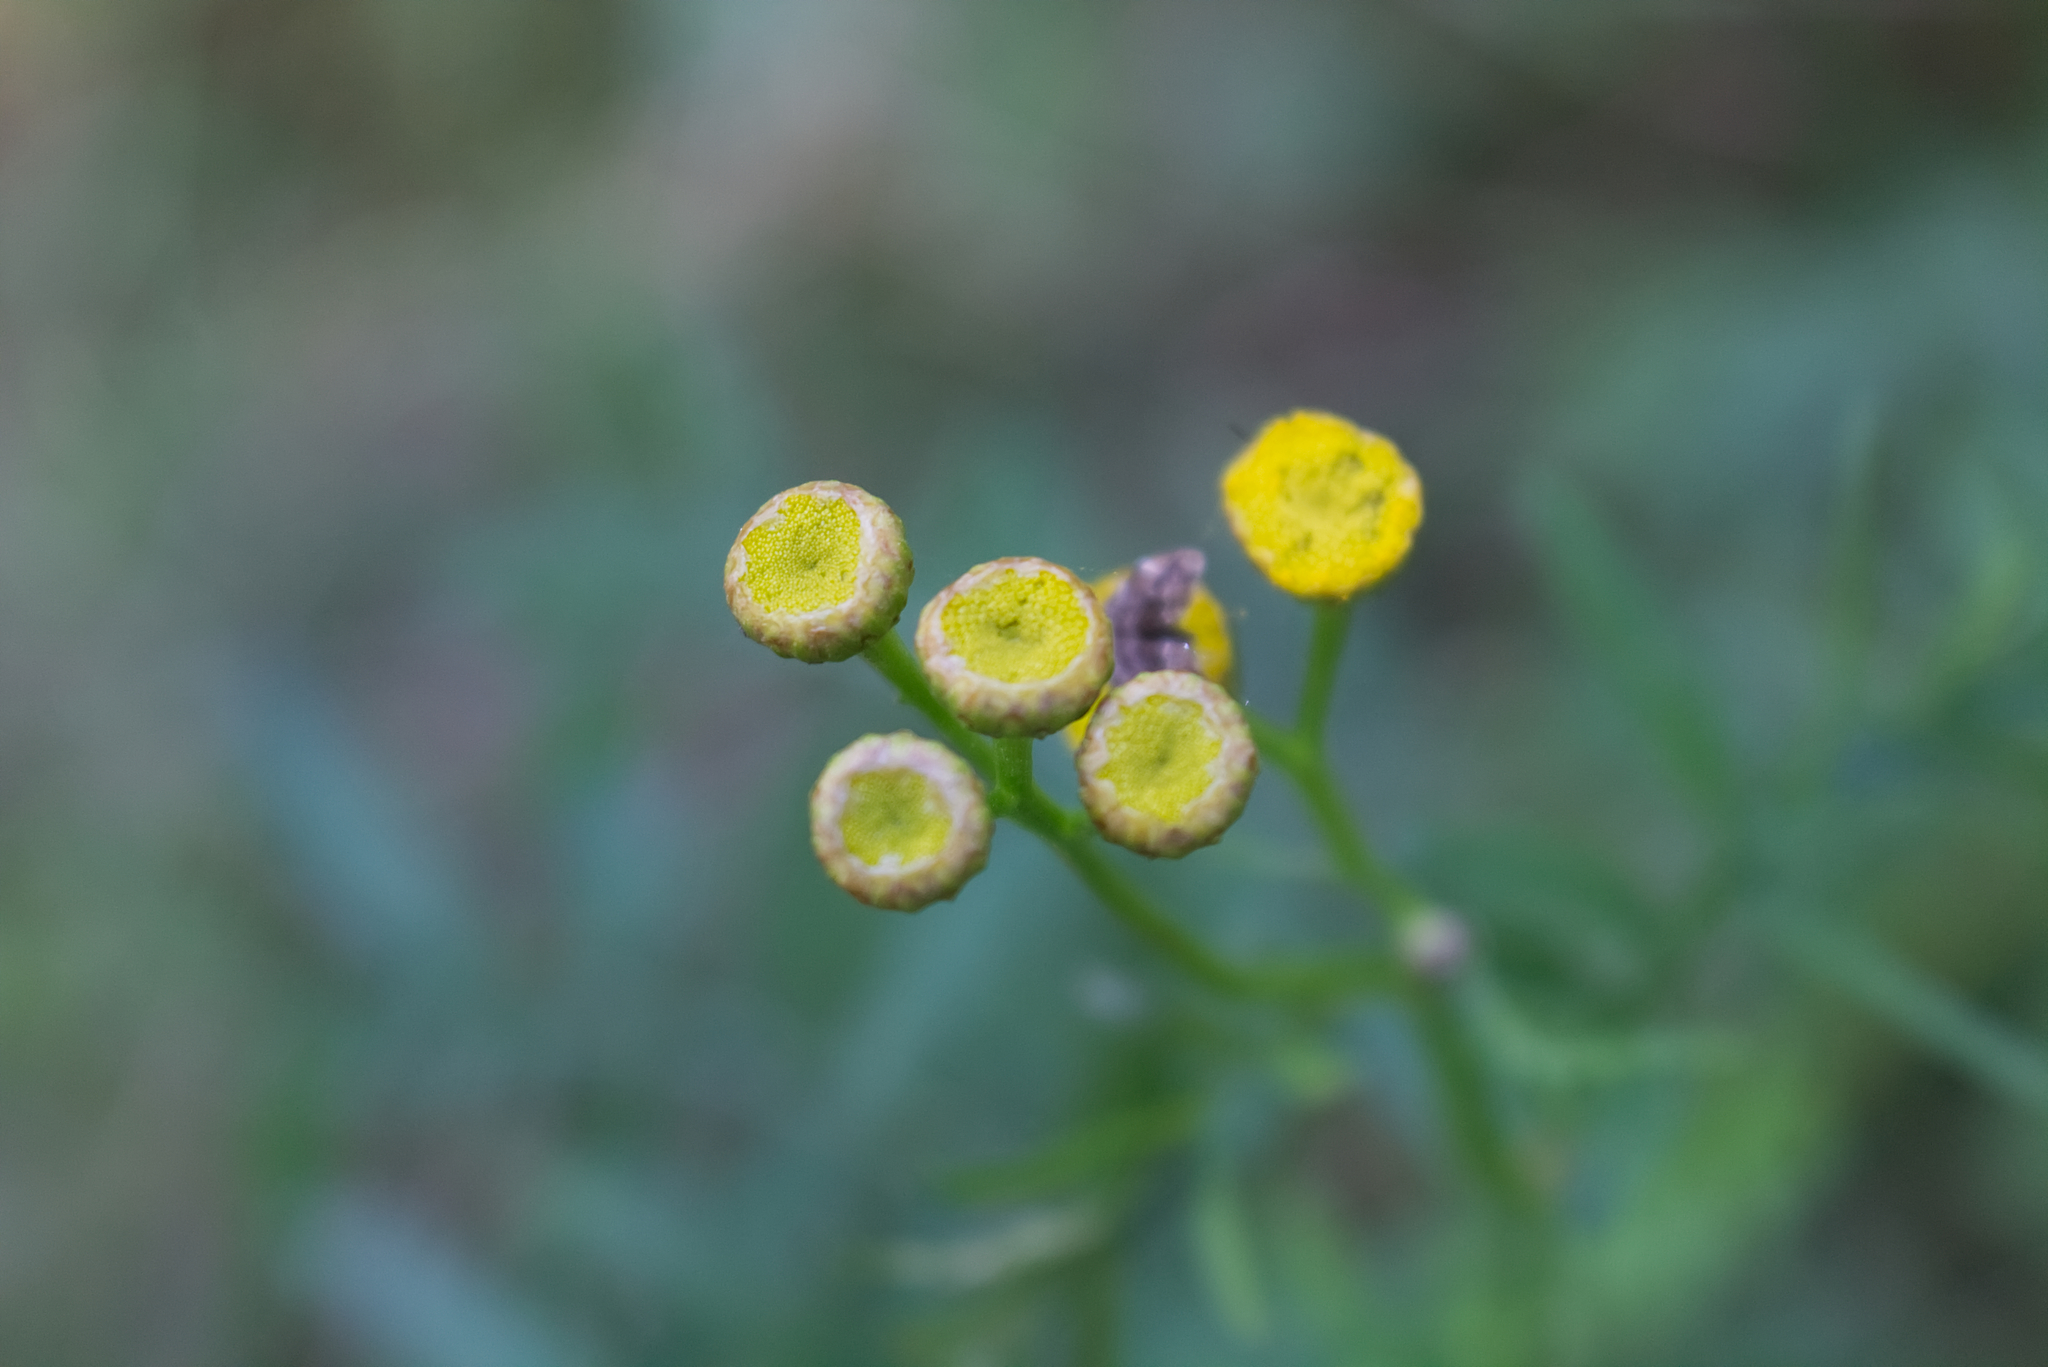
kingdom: Plantae
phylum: Tracheophyta
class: Magnoliopsida
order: Asterales
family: Asteraceae
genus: Tanacetum
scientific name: Tanacetum vulgare
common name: Common tansy
